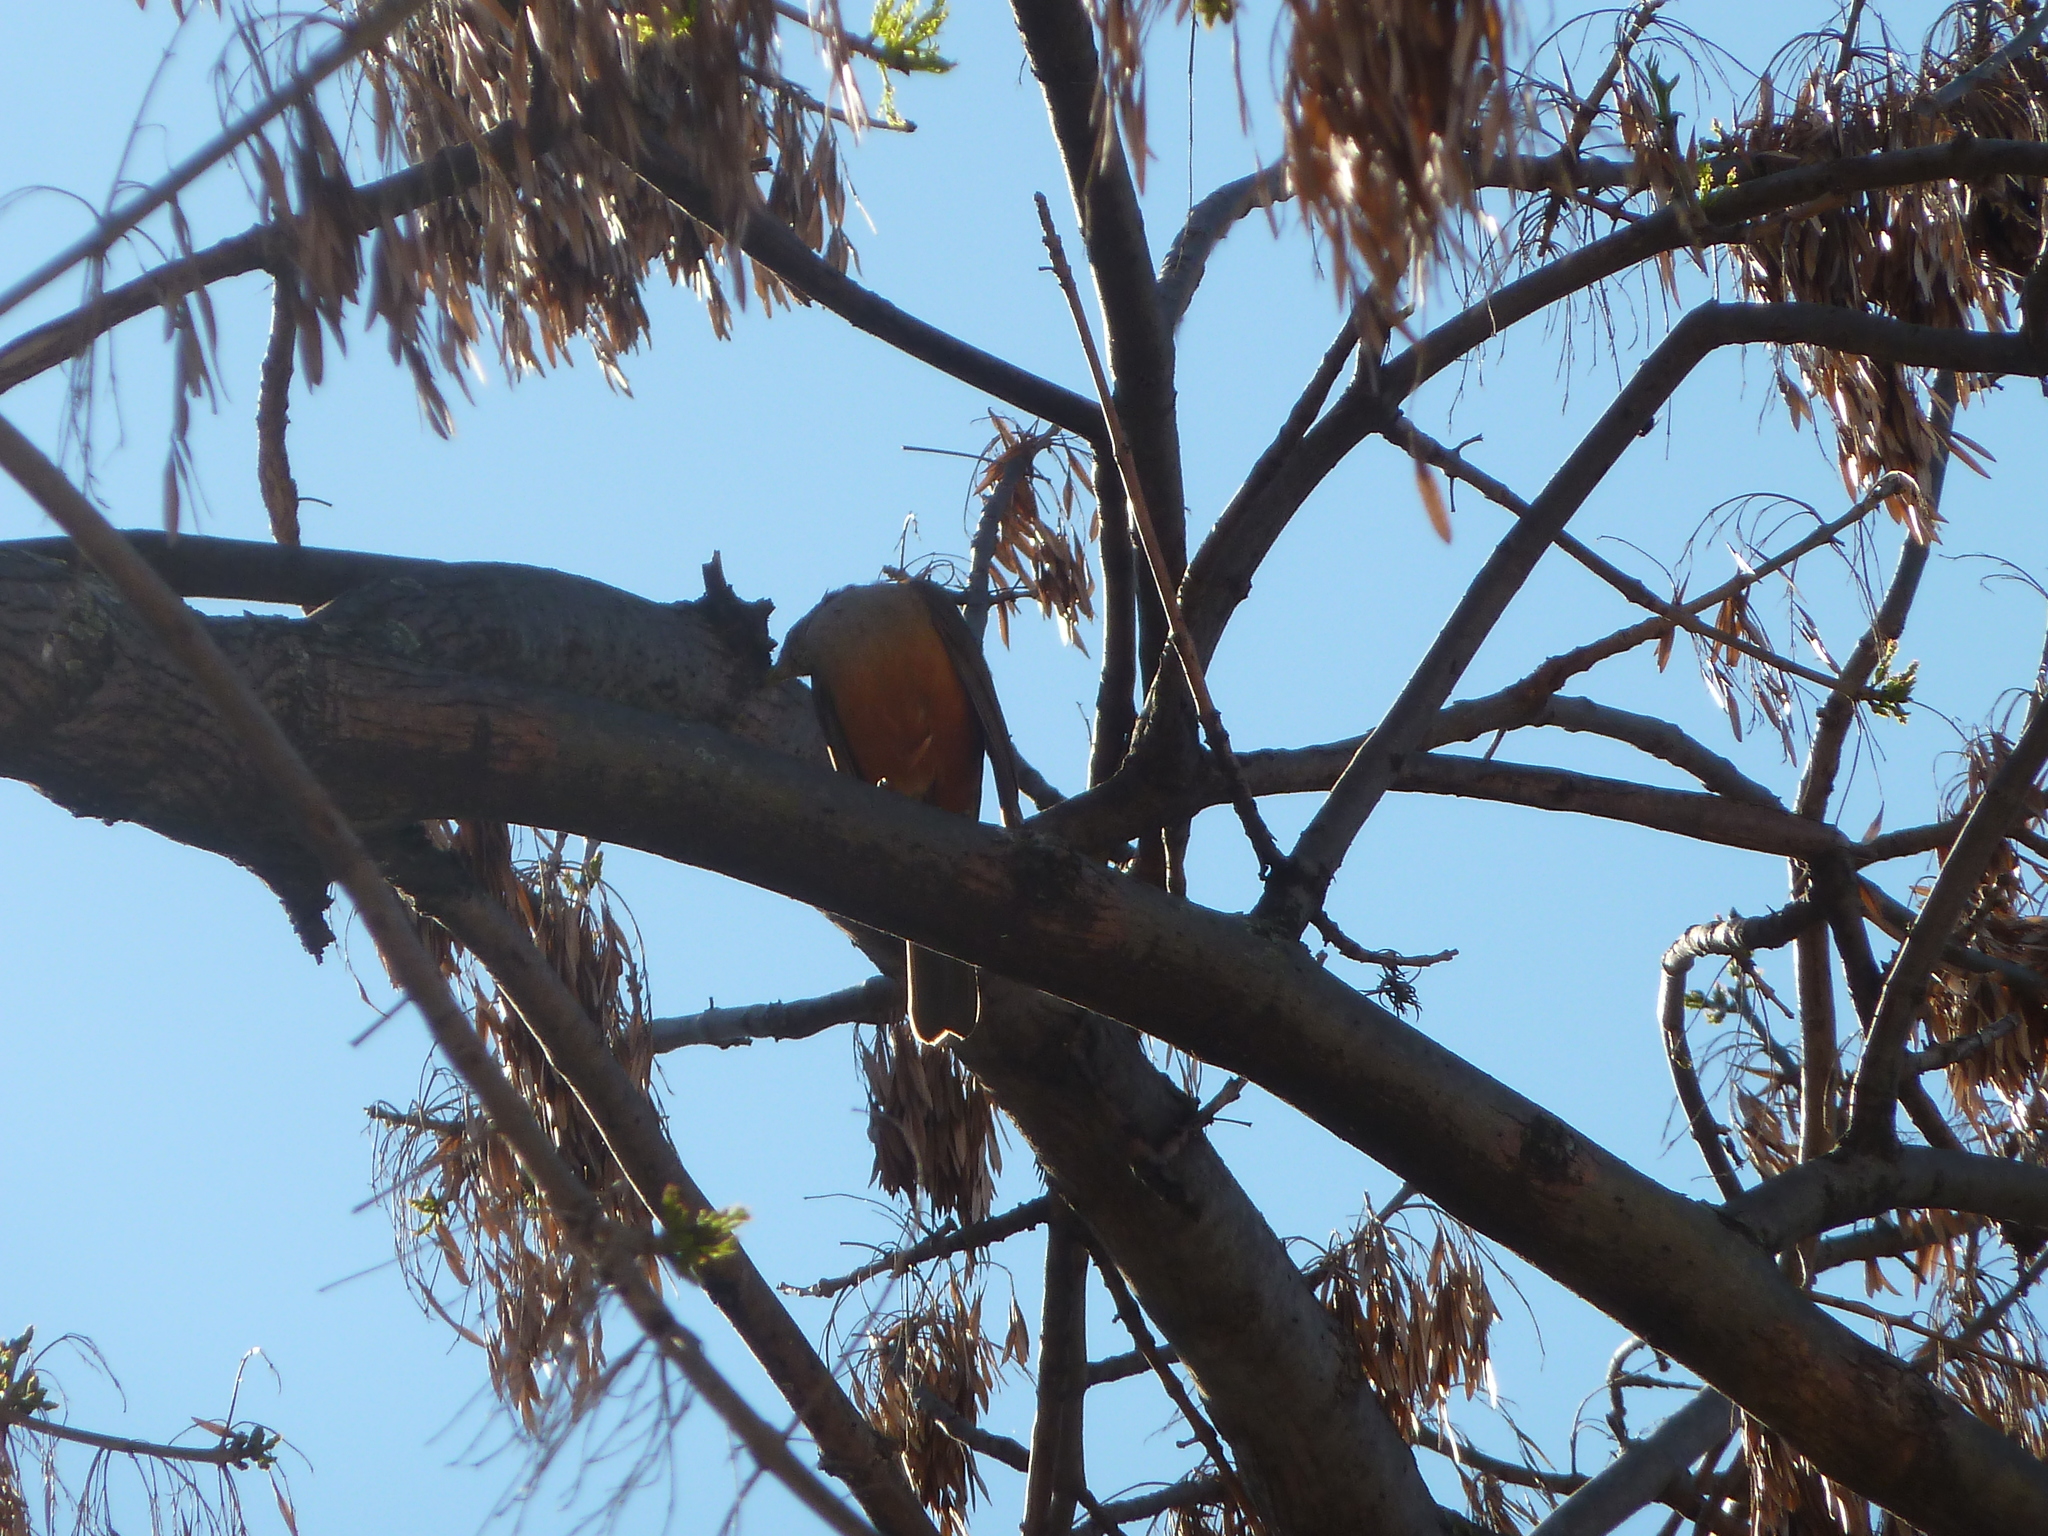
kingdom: Animalia
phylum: Chordata
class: Aves
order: Passeriformes
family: Turdidae
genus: Turdus
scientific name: Turdus rufiventris
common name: Rufous-bellied thrush
